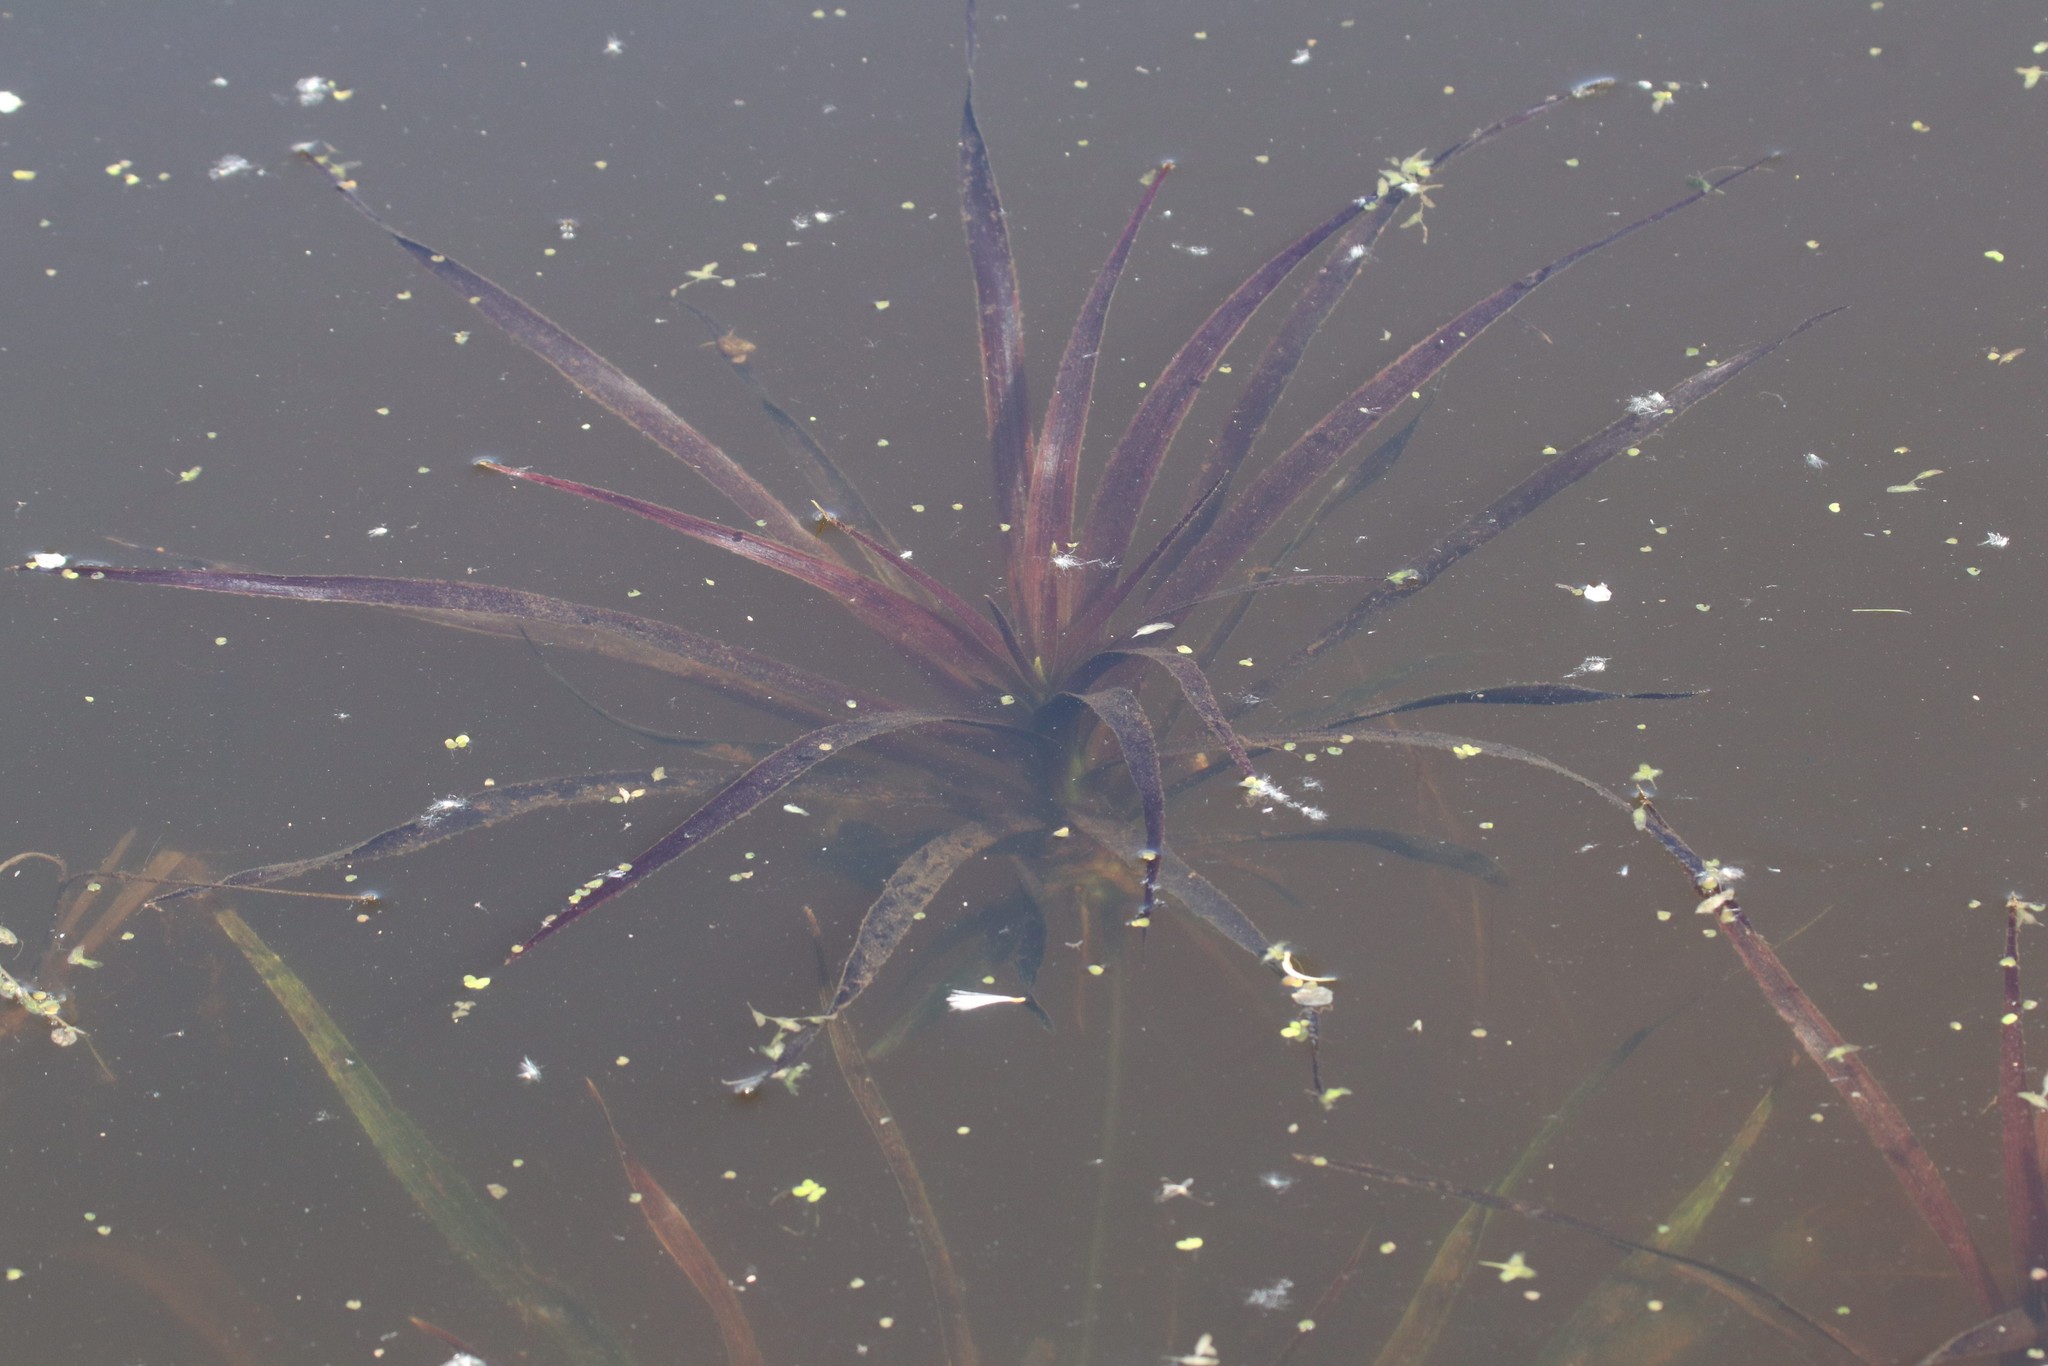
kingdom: Plantae
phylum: Tracheophyta
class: Liliopsida
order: Alismatales
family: Hydrocharitaceae
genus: Stratiotes
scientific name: Stratiotes aloides
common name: Water-soldier
